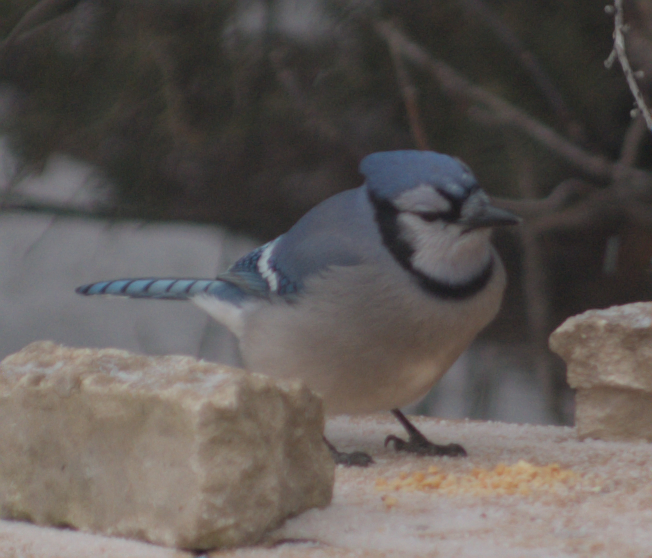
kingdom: Animalia
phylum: Chordata
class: Aves
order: Passeriformes
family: Corvidae
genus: Cyanocitta
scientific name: Cyanocitta cristata
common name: Blue jay
